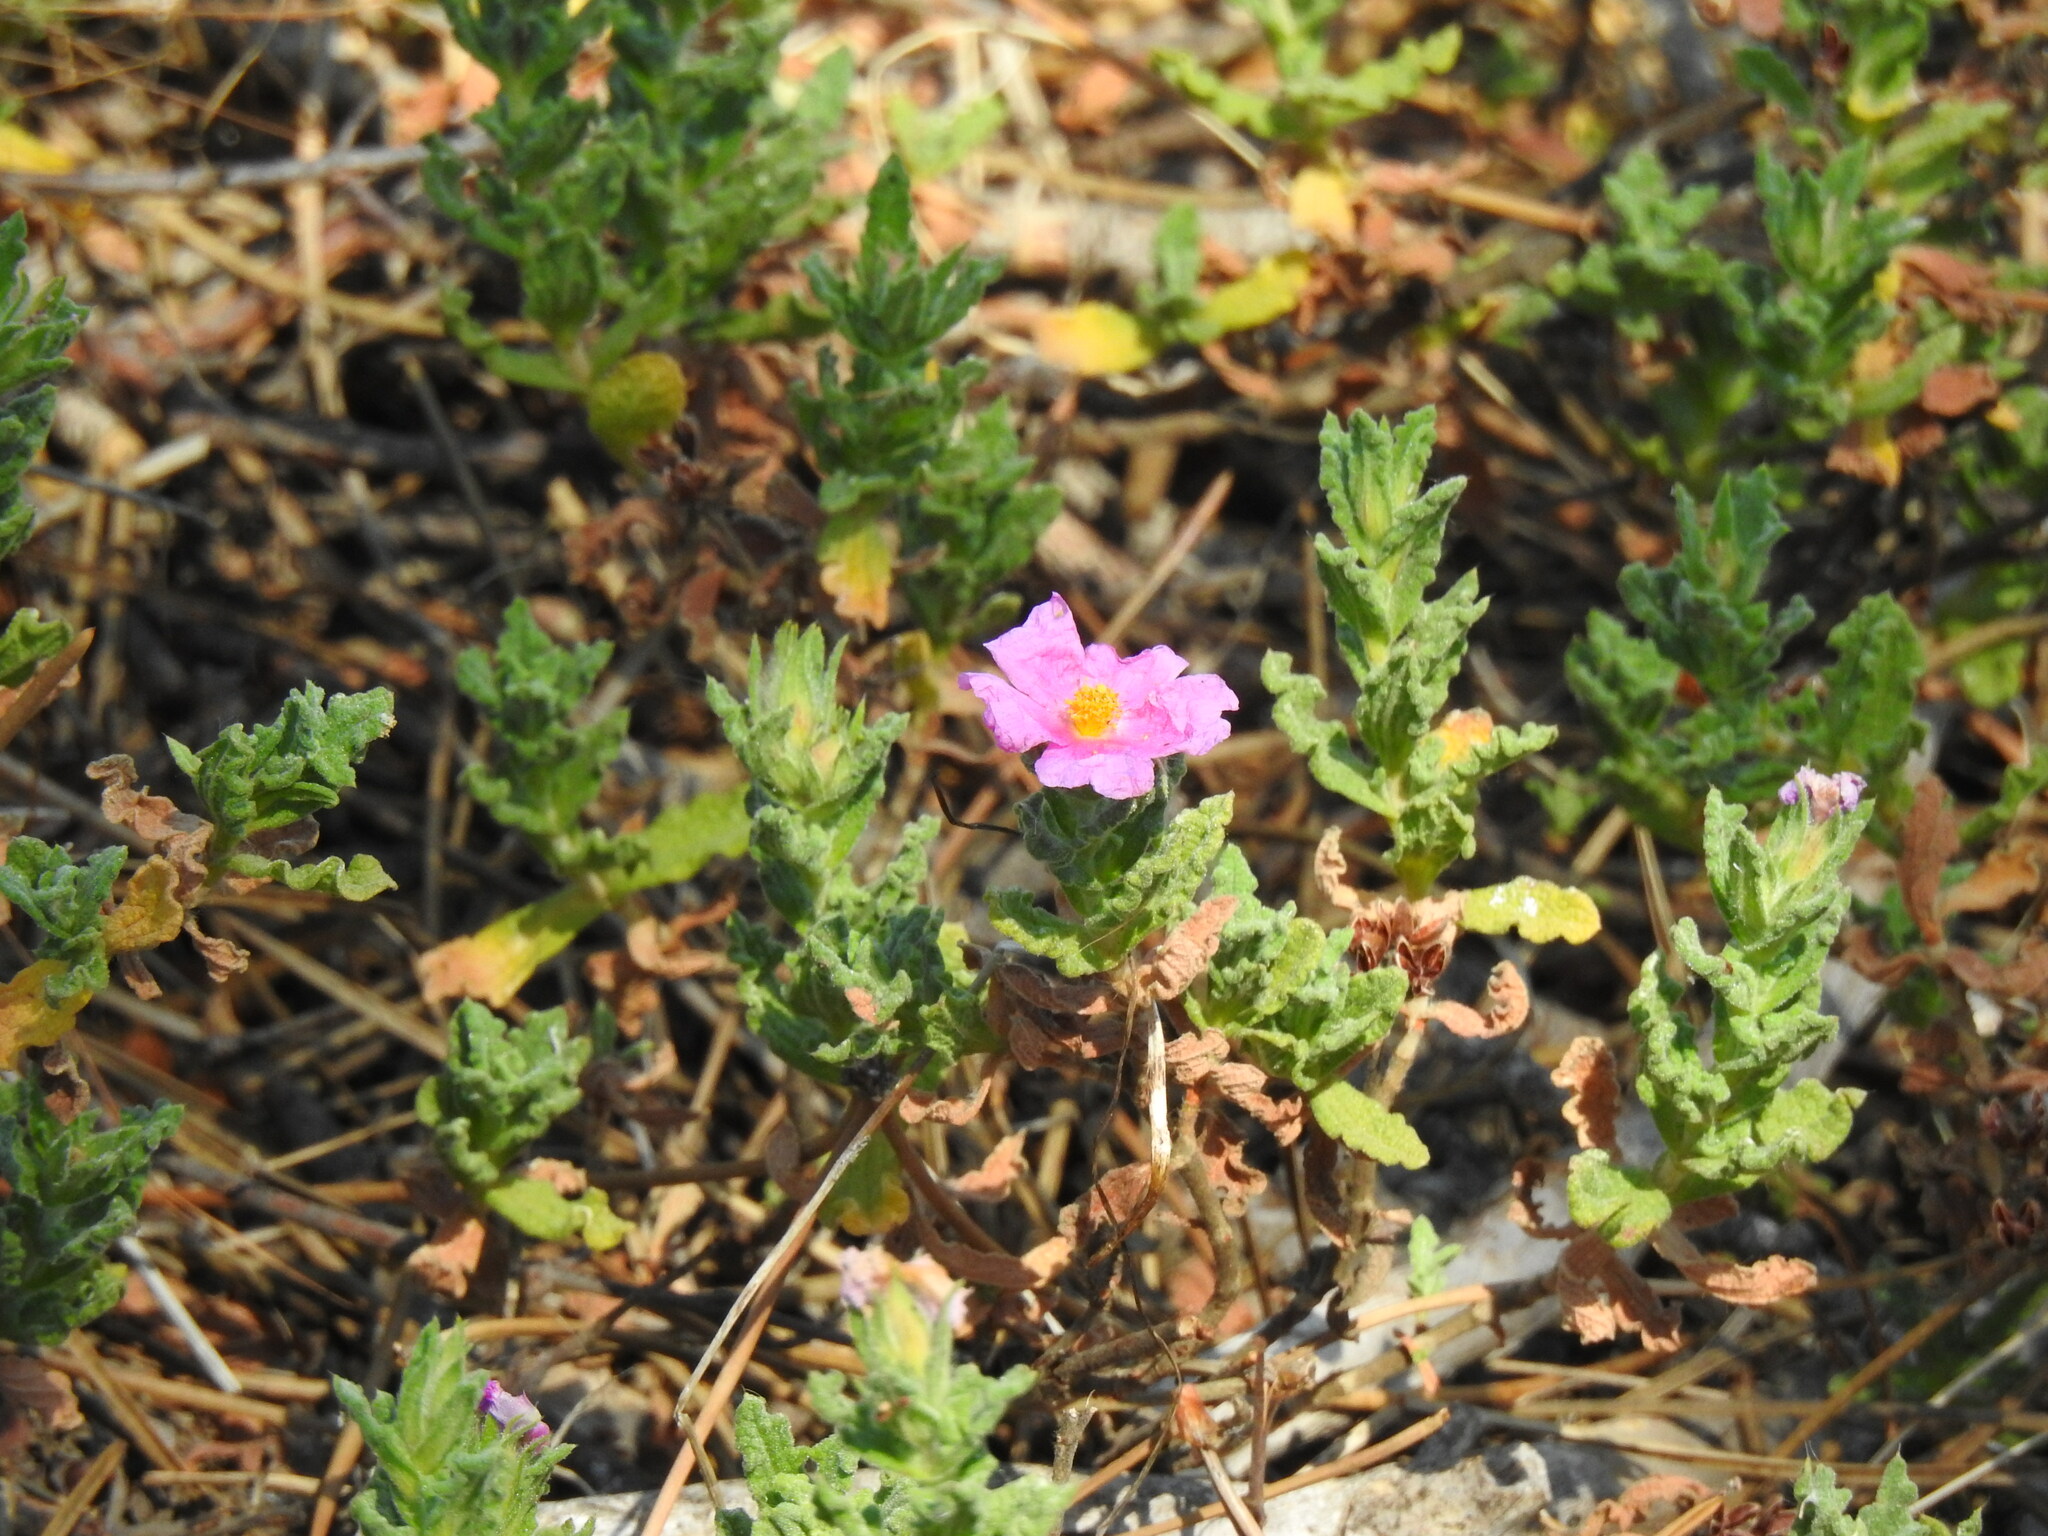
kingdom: Plantae
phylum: Tracheophyta
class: Magnoliopsida
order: Malvales
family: Cistaceae
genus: Cistus
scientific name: Cistus crispus
